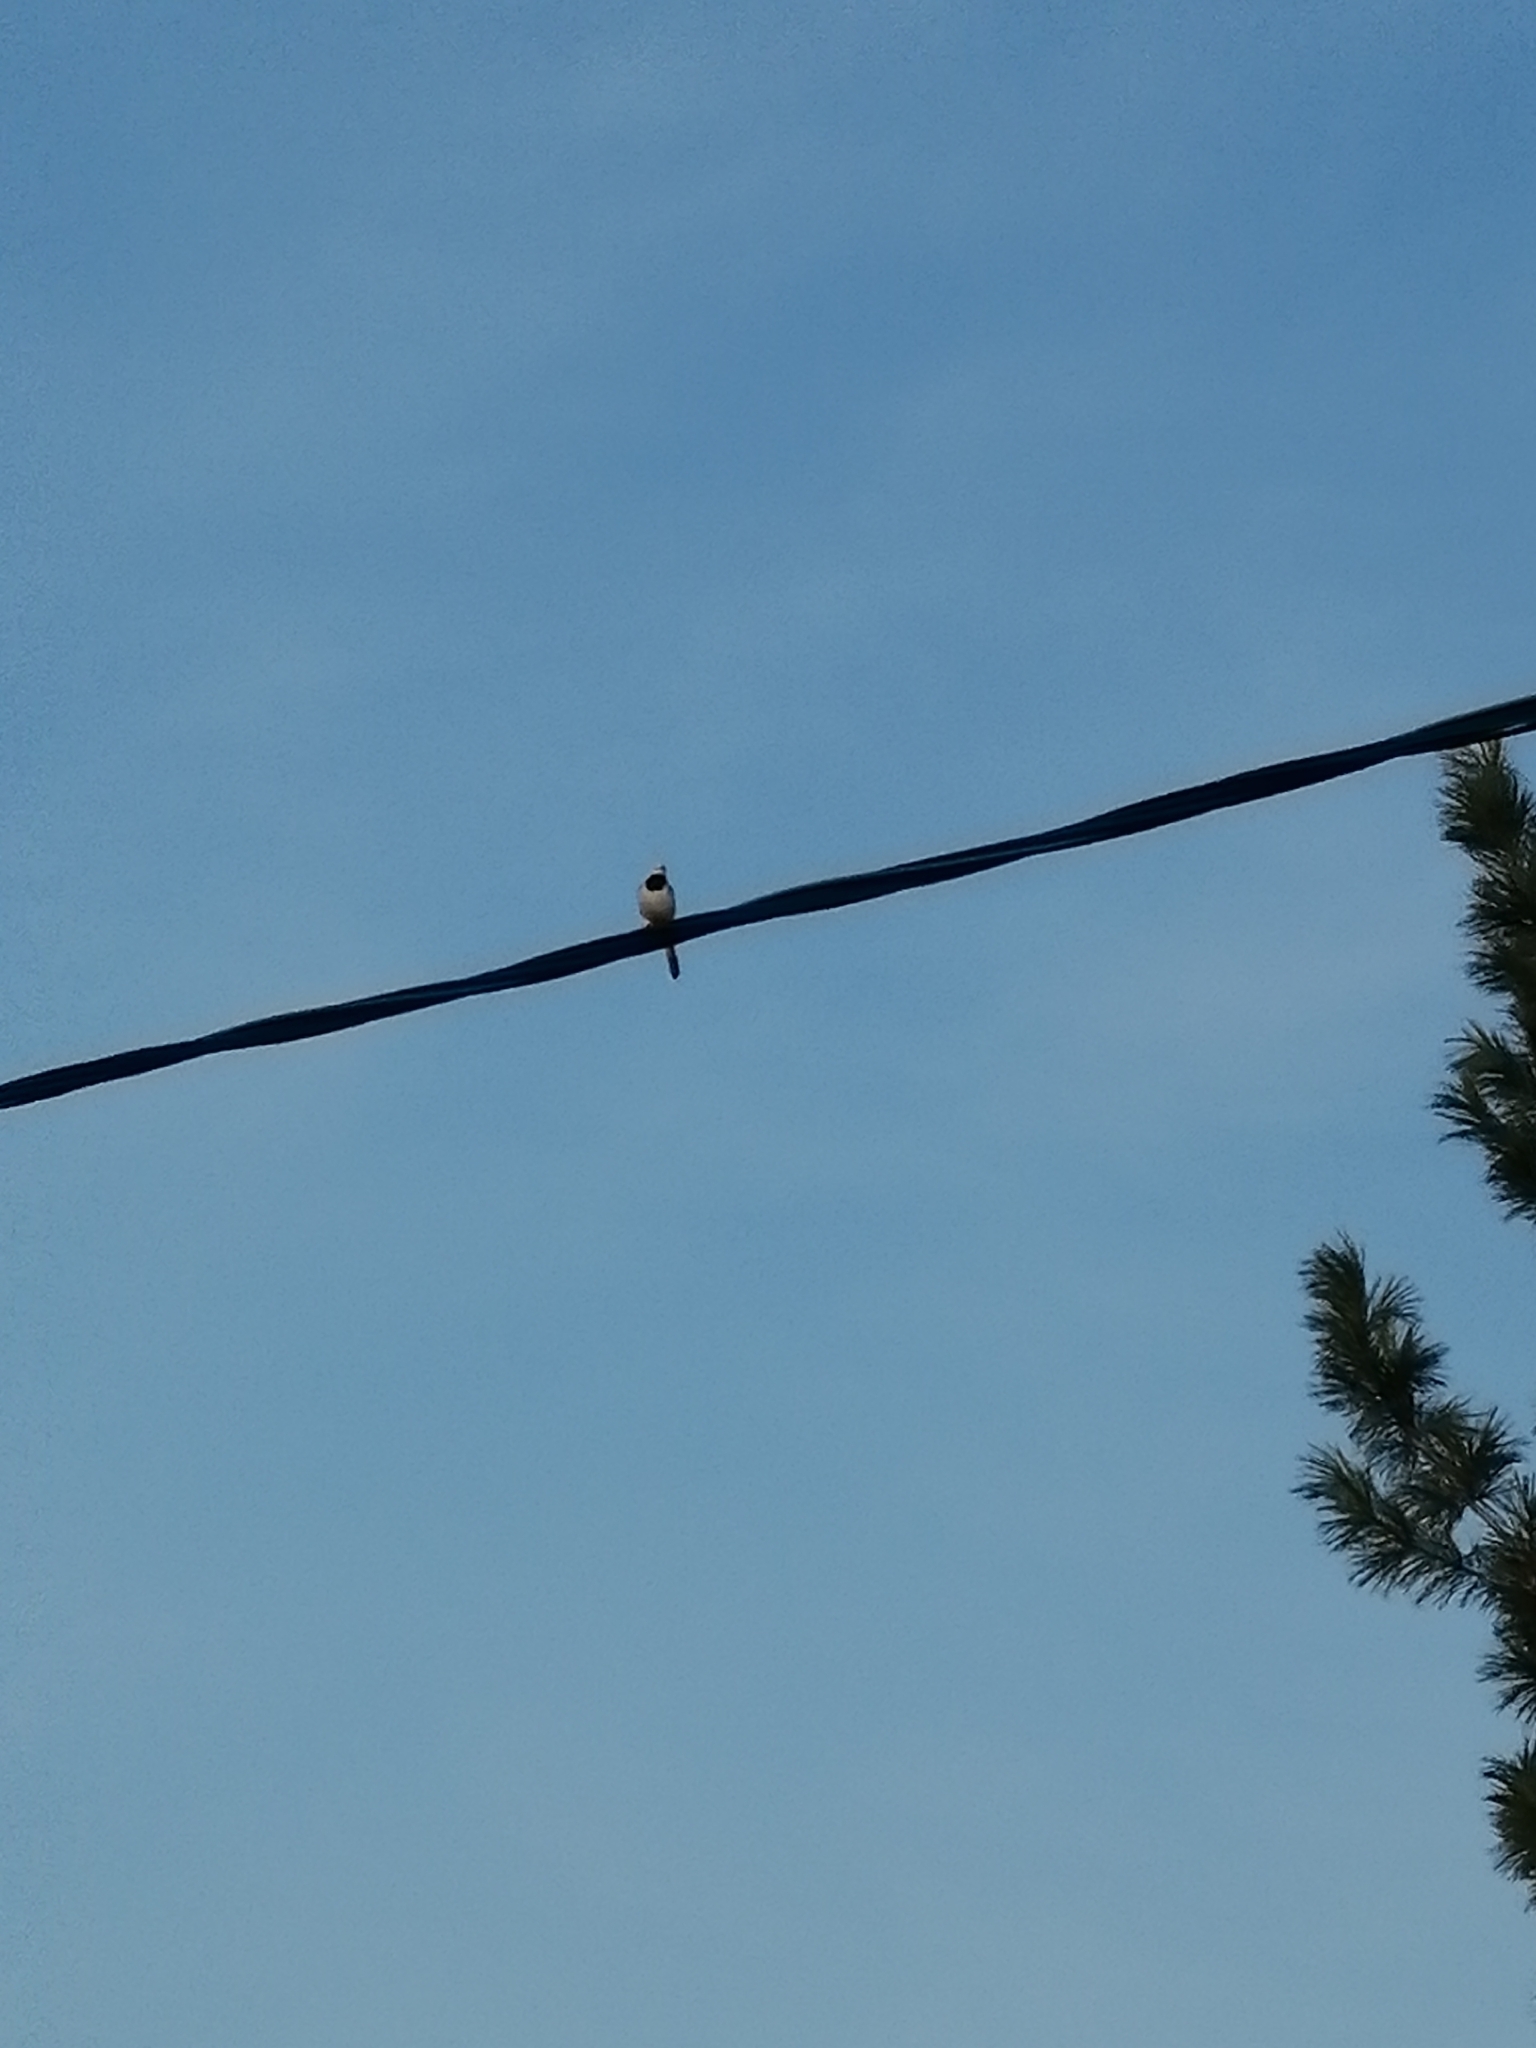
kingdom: Animalia
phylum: Chordata
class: Aves
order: Passeriformes
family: Motacillidae
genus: Motacilla
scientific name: Motacilla alba
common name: White wagtail
